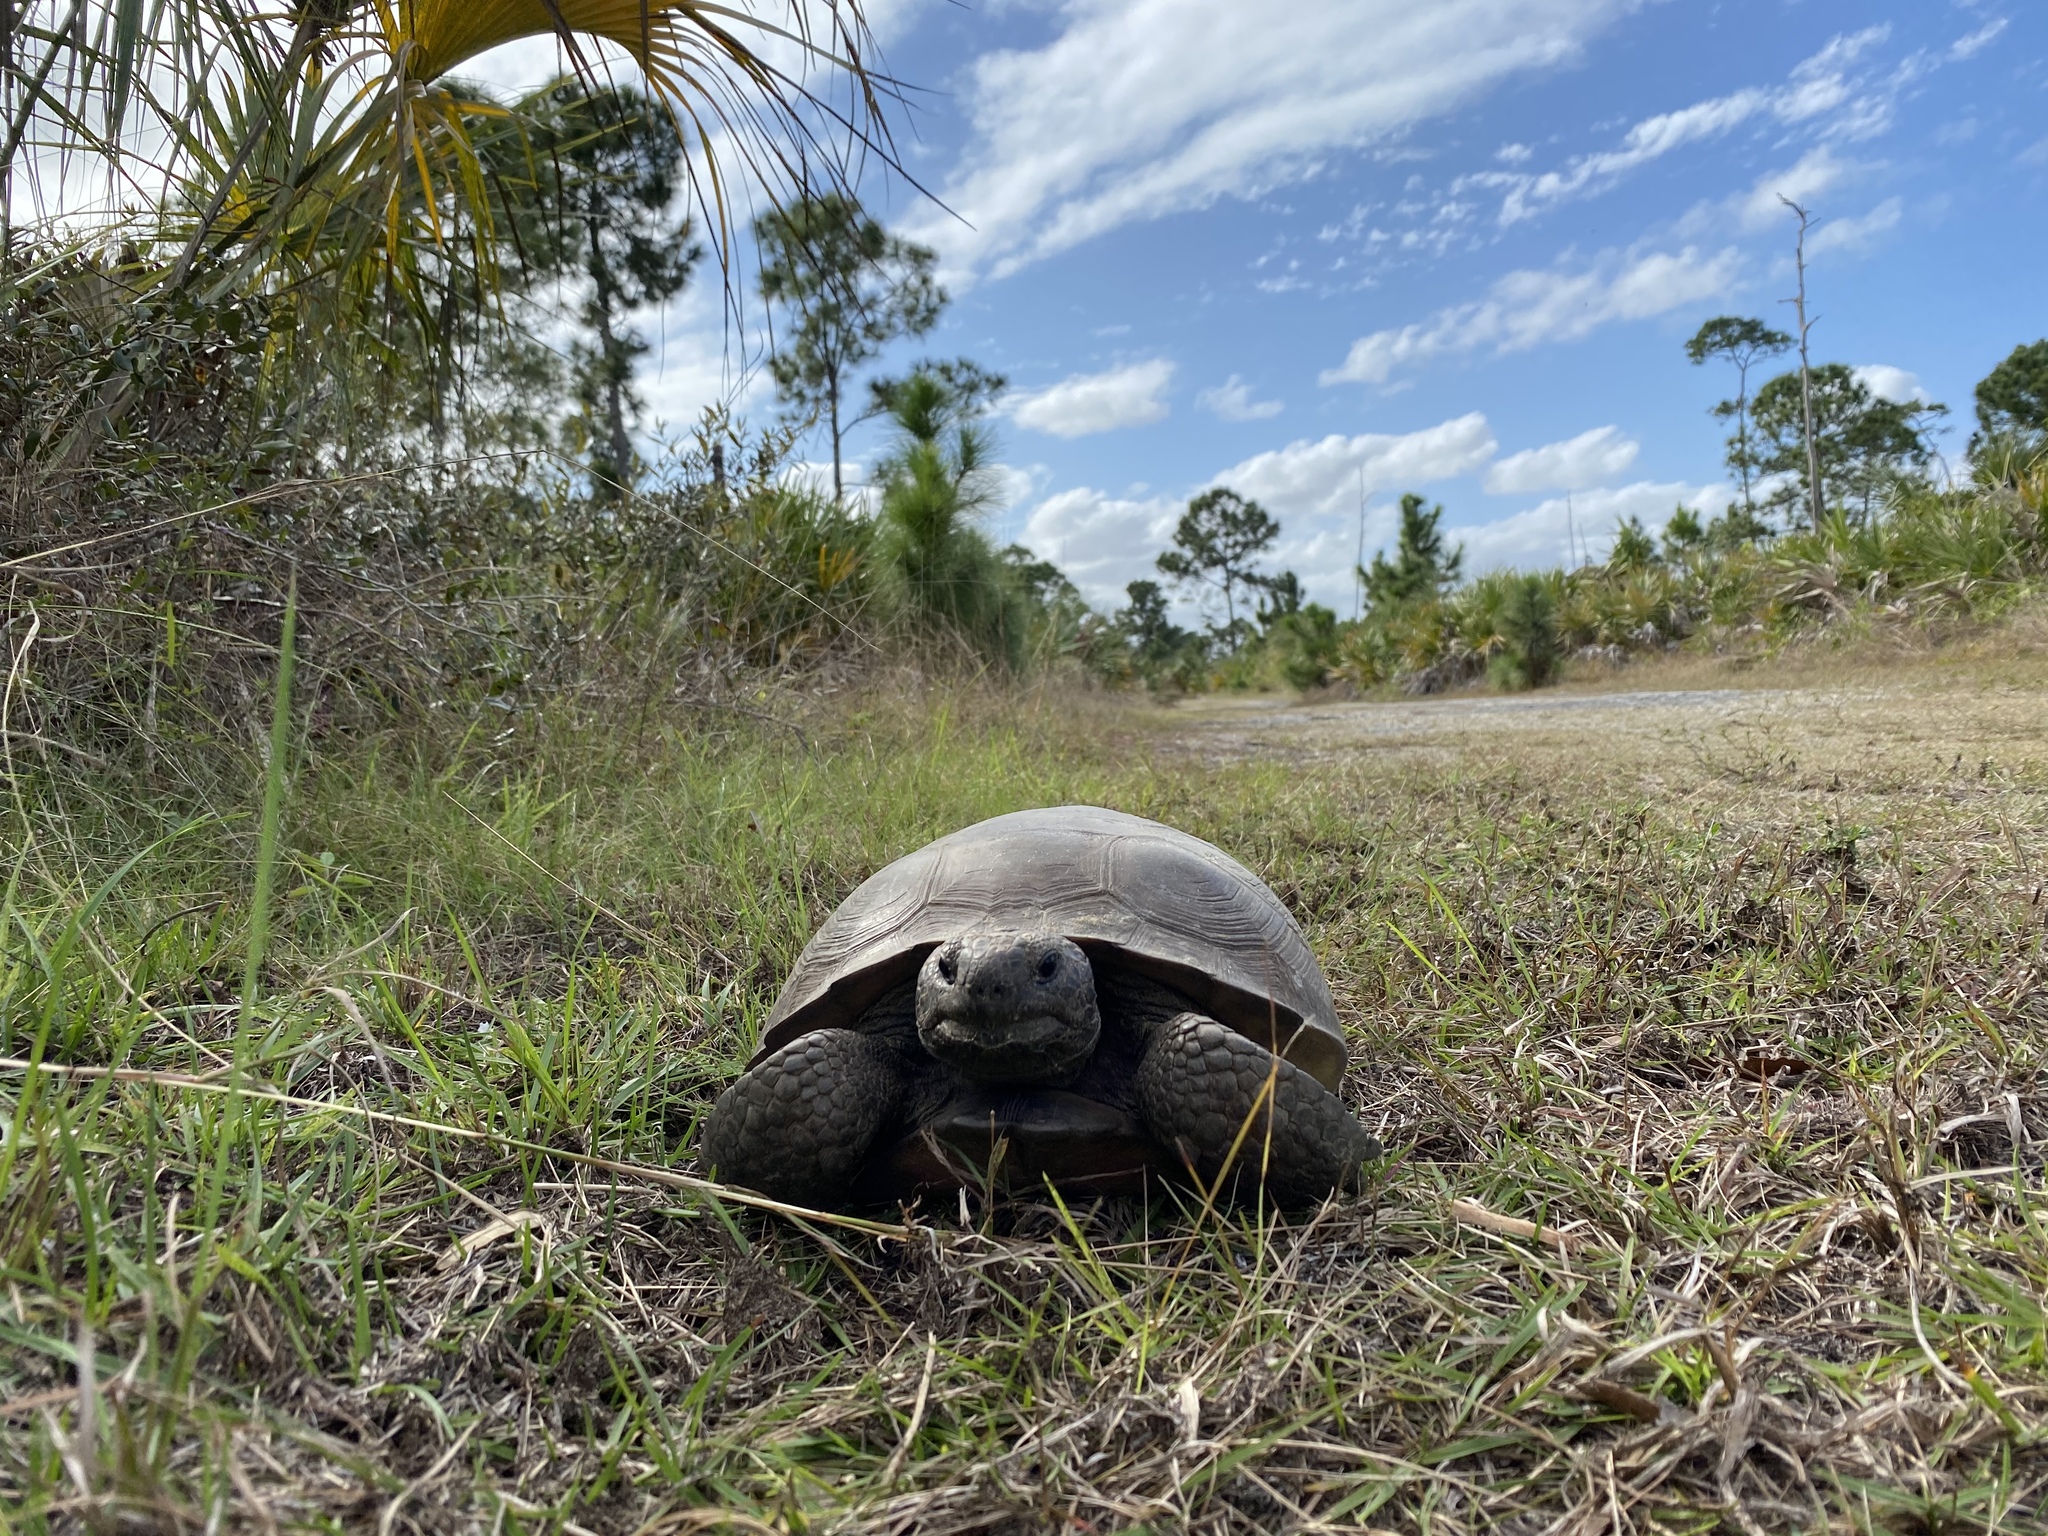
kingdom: Animalia
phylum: Chordata
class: Testudines
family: Testudinidae
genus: Gopherus
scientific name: Gopherus polyphemus
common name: Florida gopher tortoise
